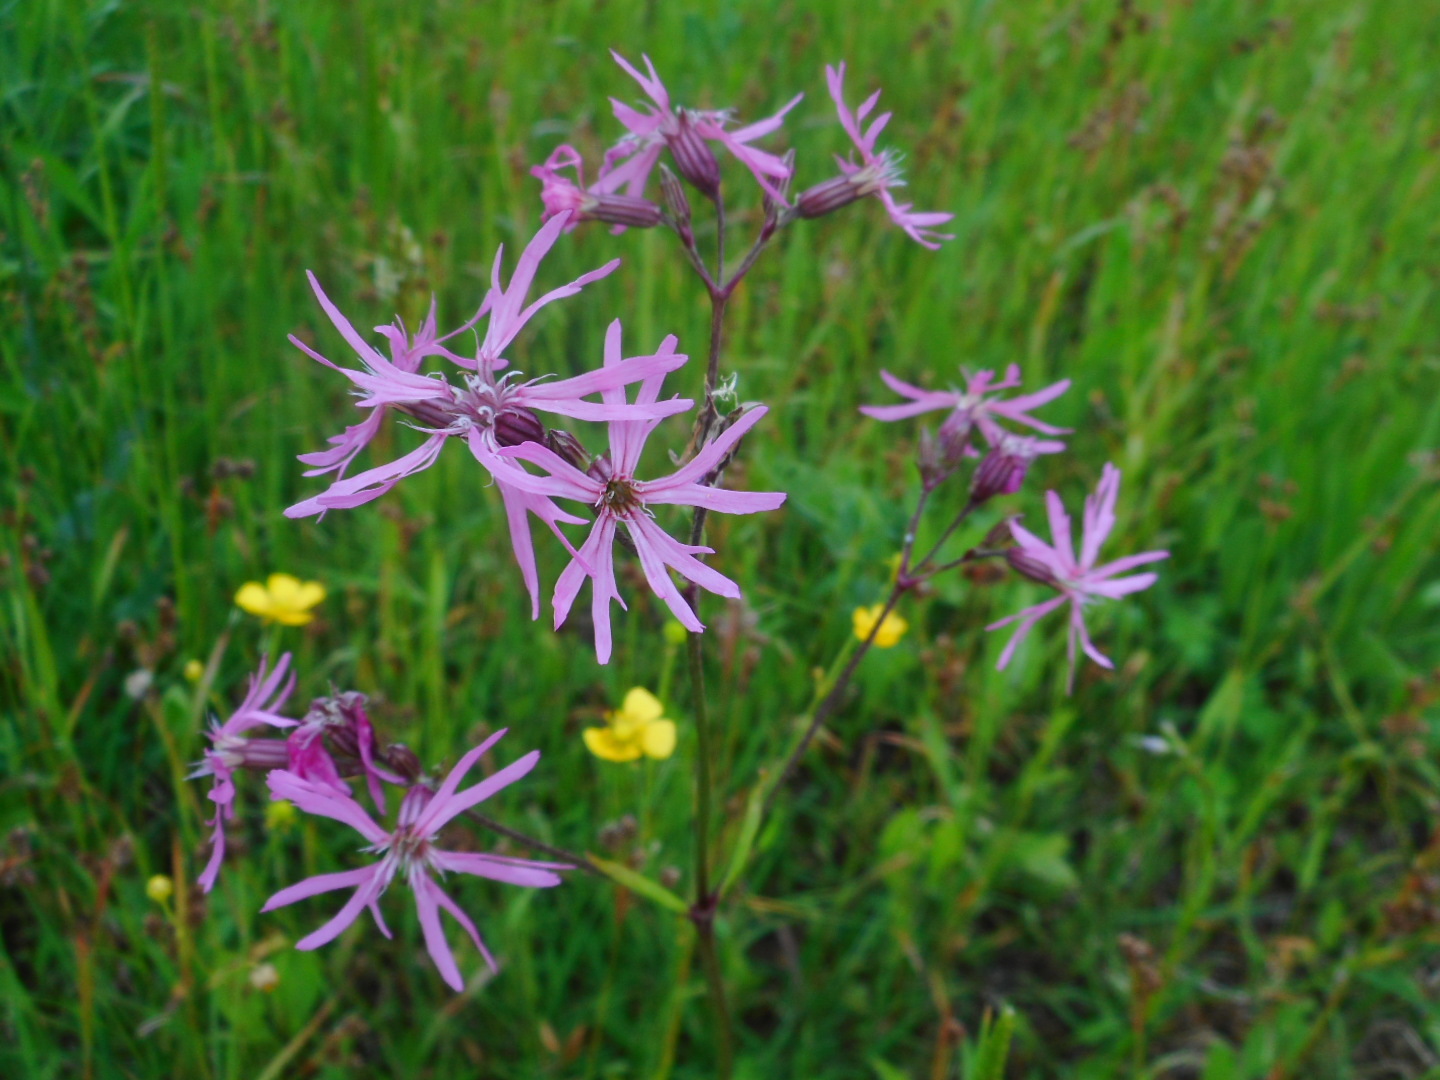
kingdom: Plantae
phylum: Tracheophyta
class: Magnoliopsida
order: Caryophyllales
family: Caryophyllaceae
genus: Silene
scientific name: Silene flos-cuculi
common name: Ragged-robin
